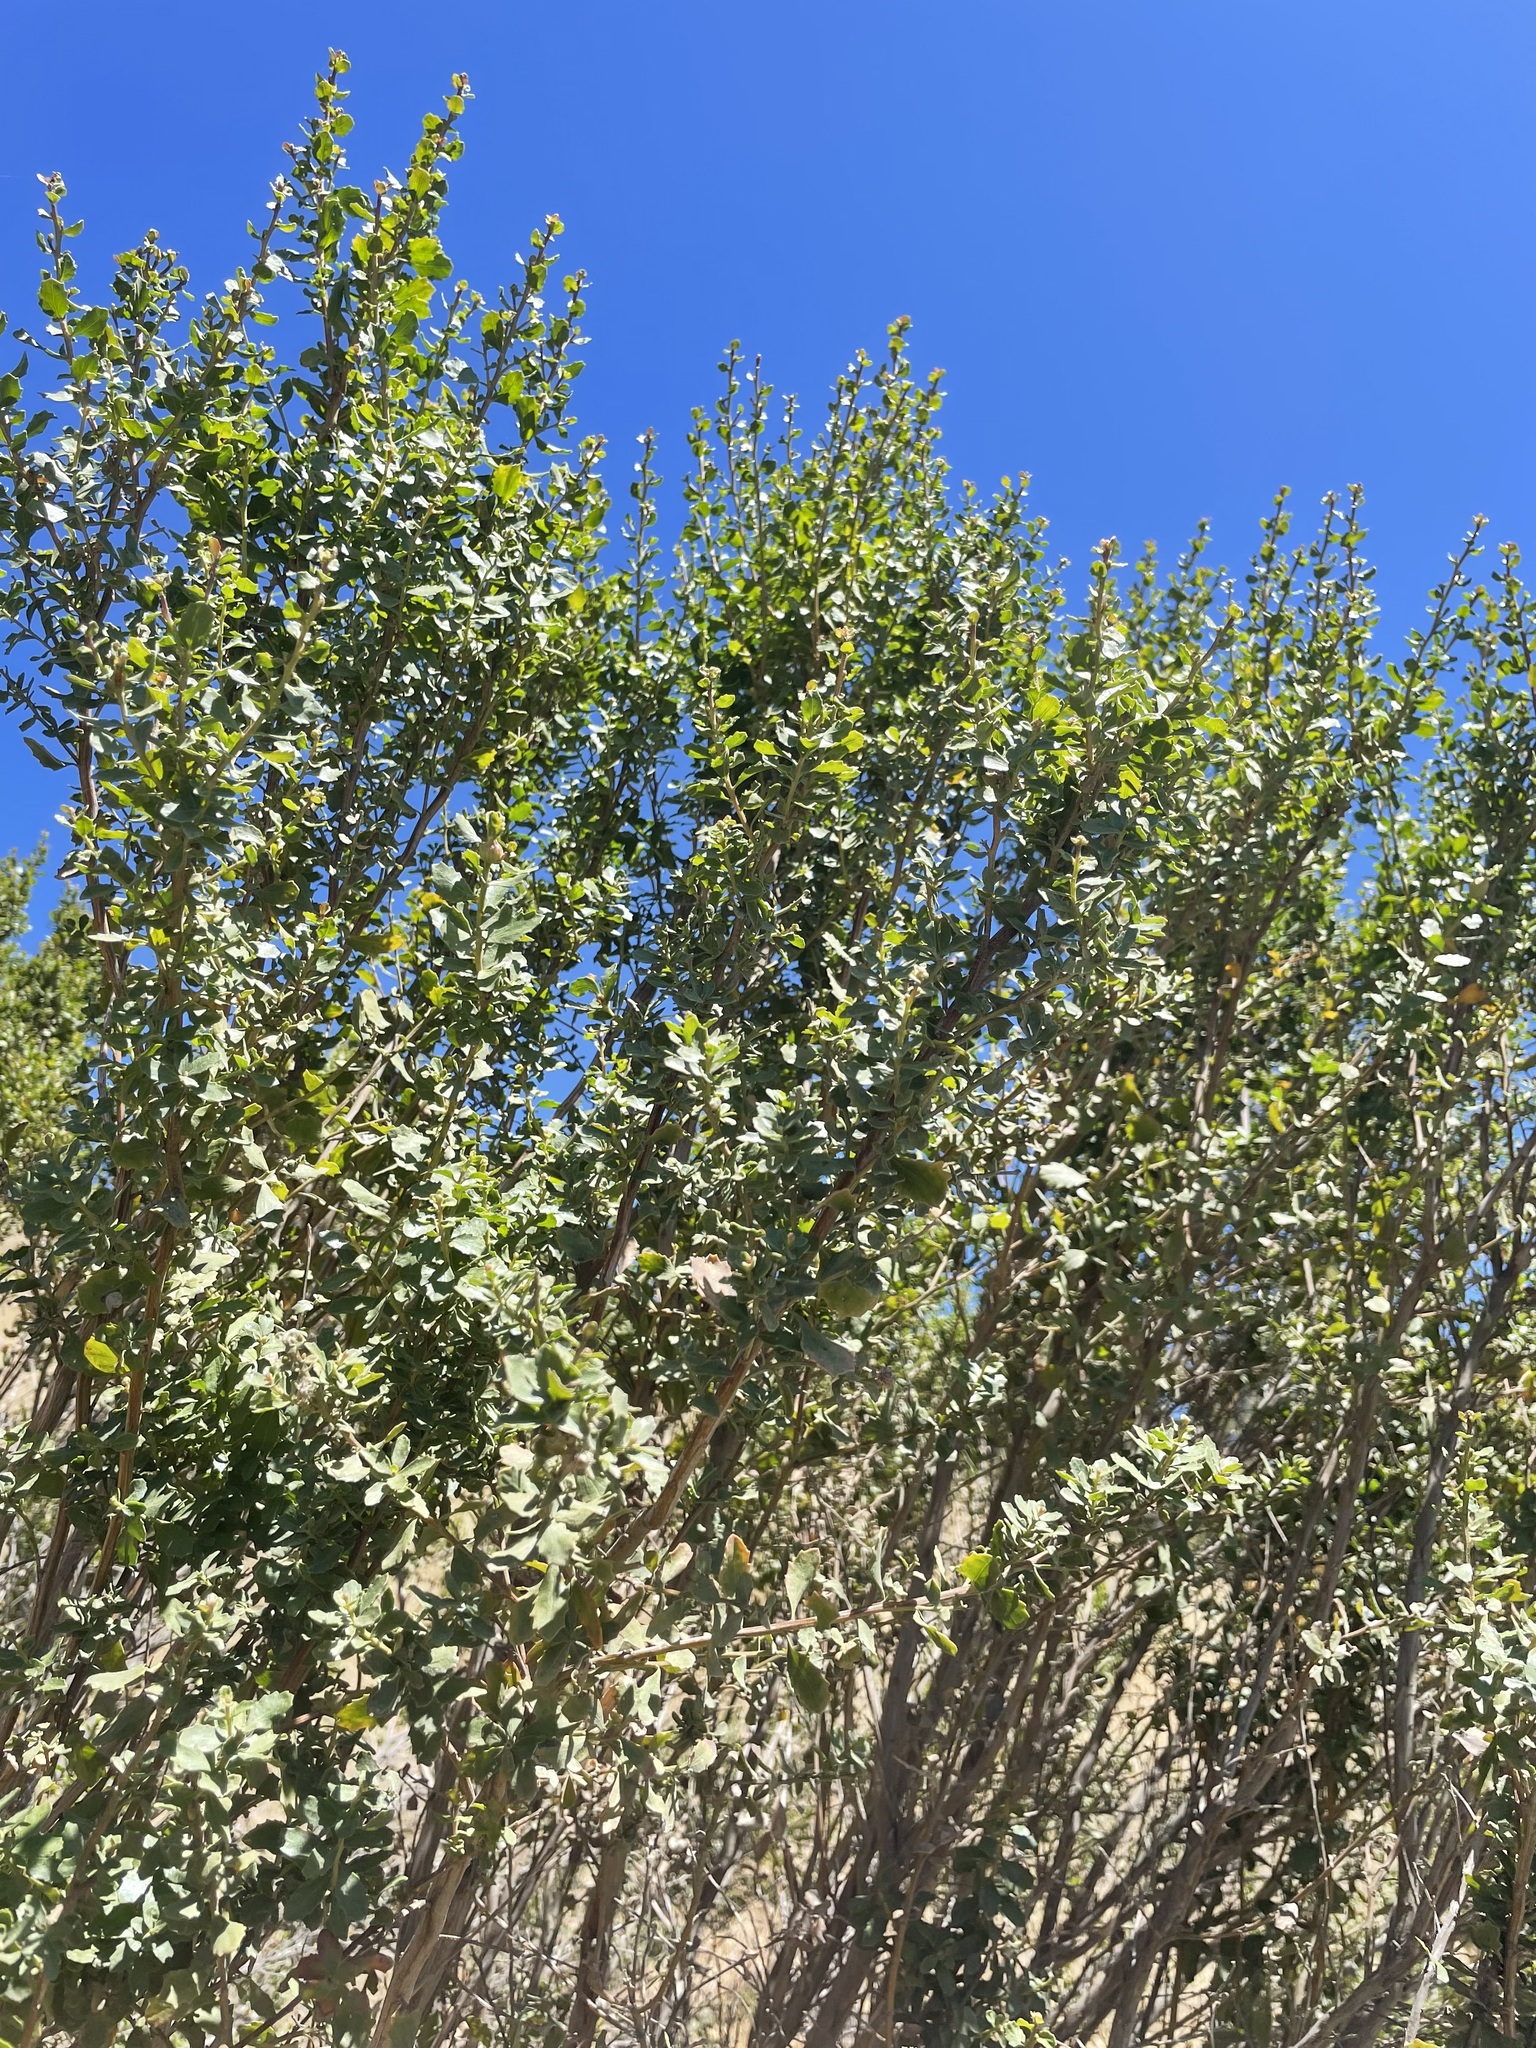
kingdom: Plantae
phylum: Tracheophyta
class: Magnoliopsida
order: Asterales
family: Asteraceae
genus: Baccharis
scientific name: Baccharis pilularis
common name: Coyotebrush
